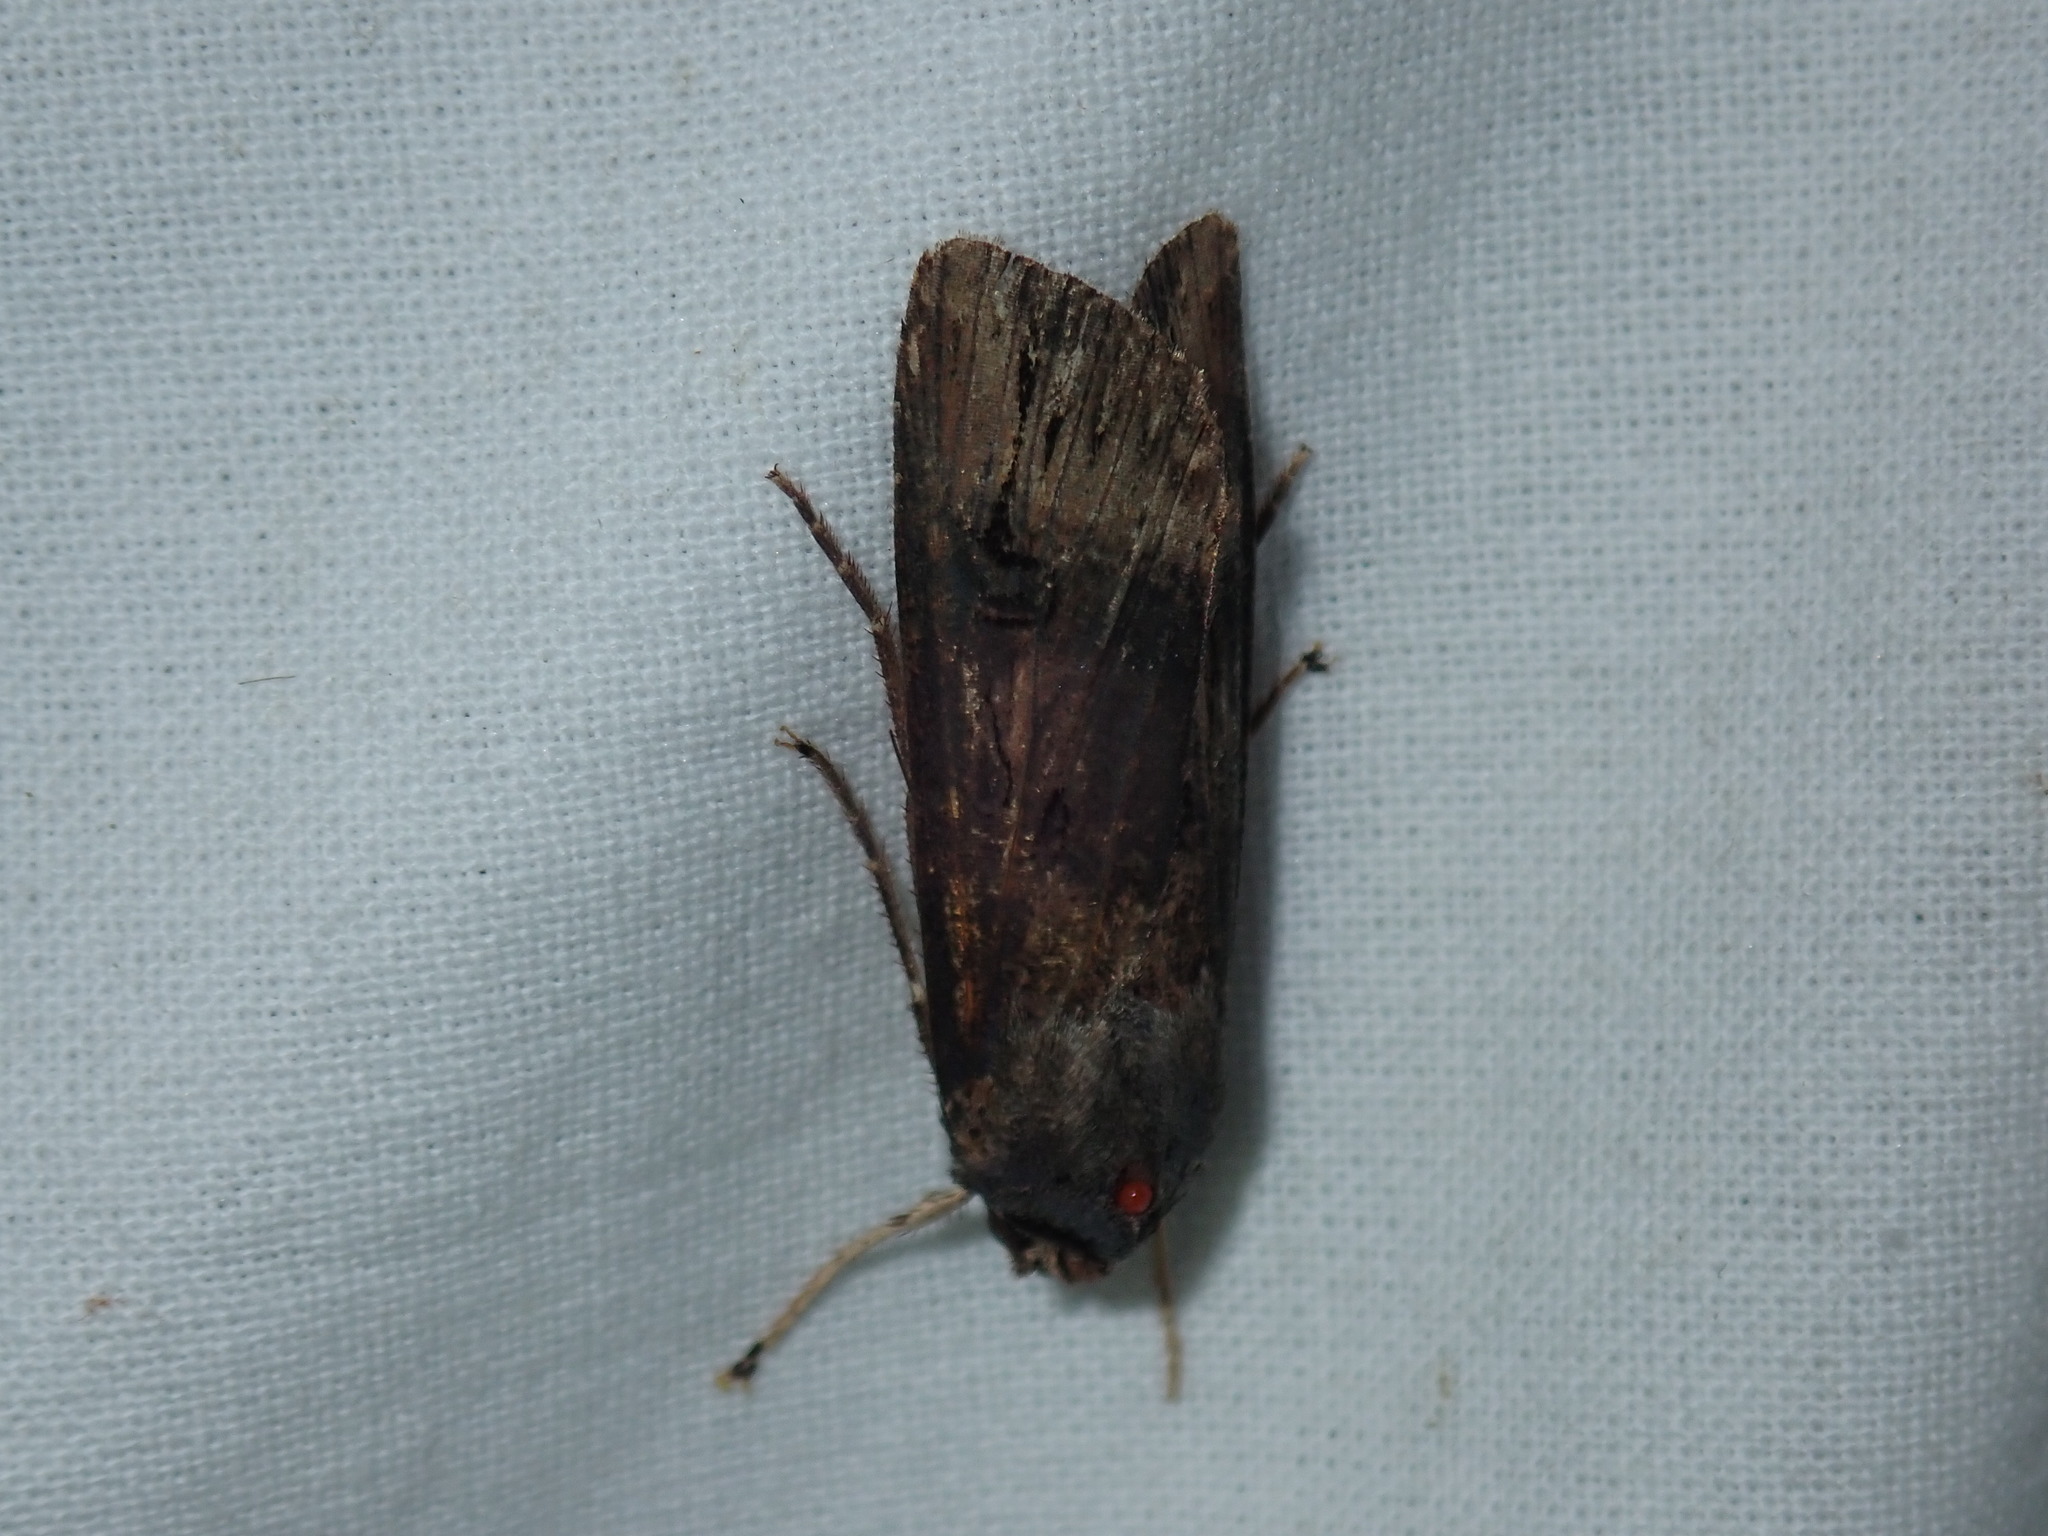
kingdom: Animalia
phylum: Arthropoda
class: Insecta
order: Lepidoptera
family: Noctuidae
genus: Agrotis
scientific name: Agrotis ipsilon
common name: Dark sword-grass
